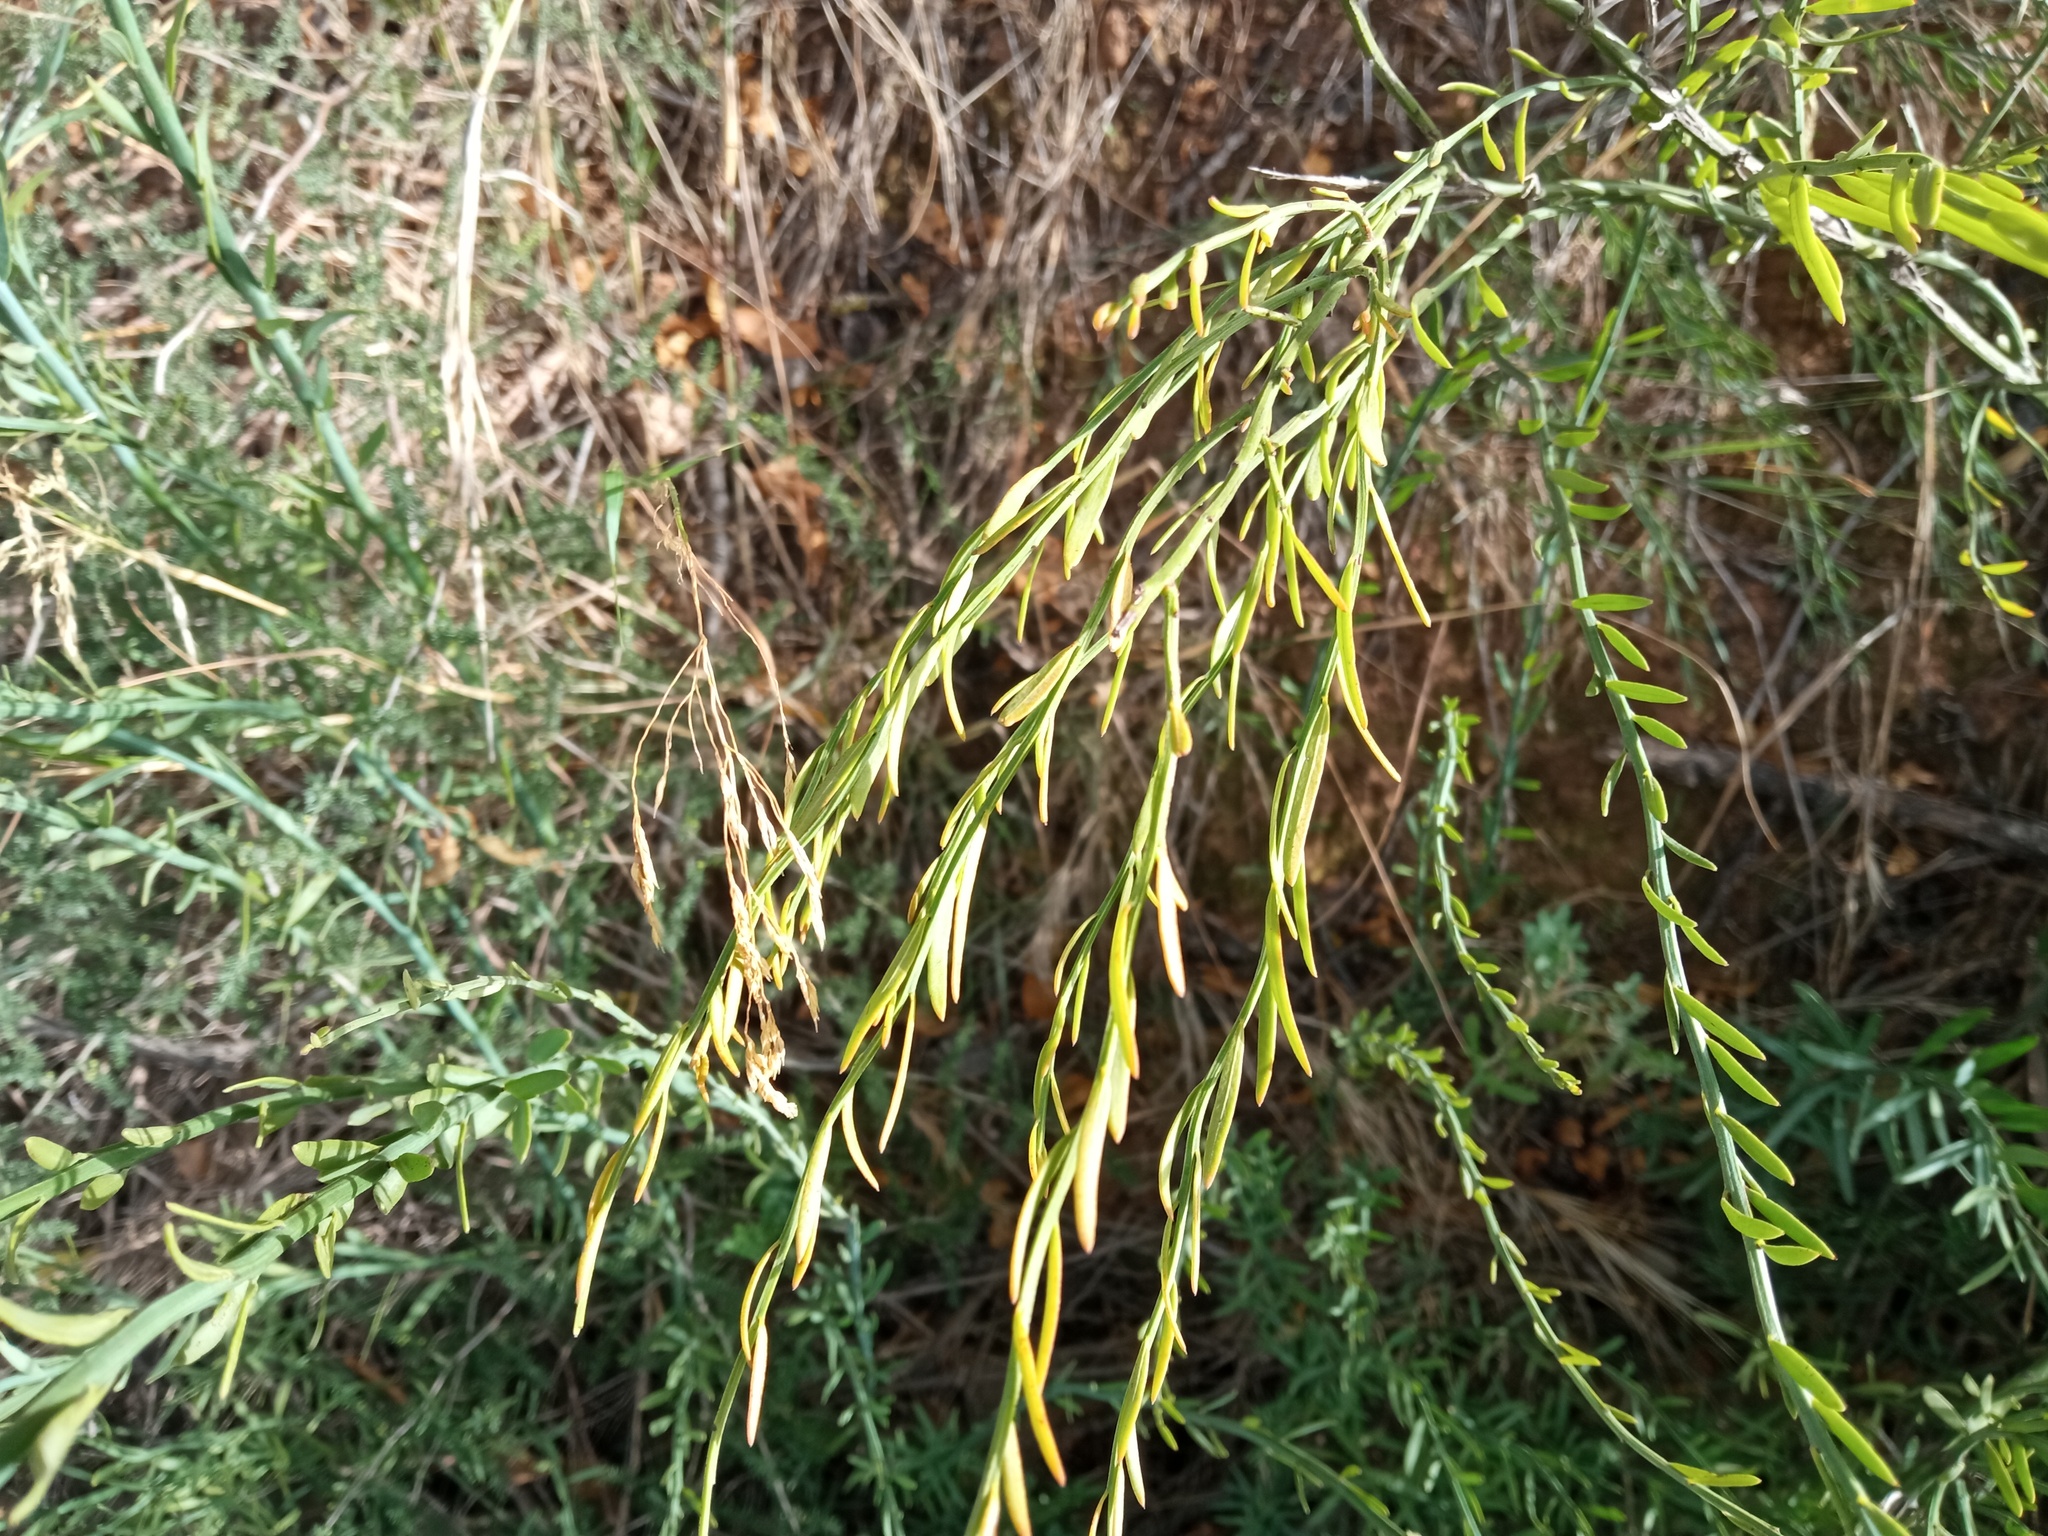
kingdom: Plantae
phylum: Tracheophyta
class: Magnoliopsida
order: Santalales
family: Santalaceae
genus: Osyris
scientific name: Osyris alba
